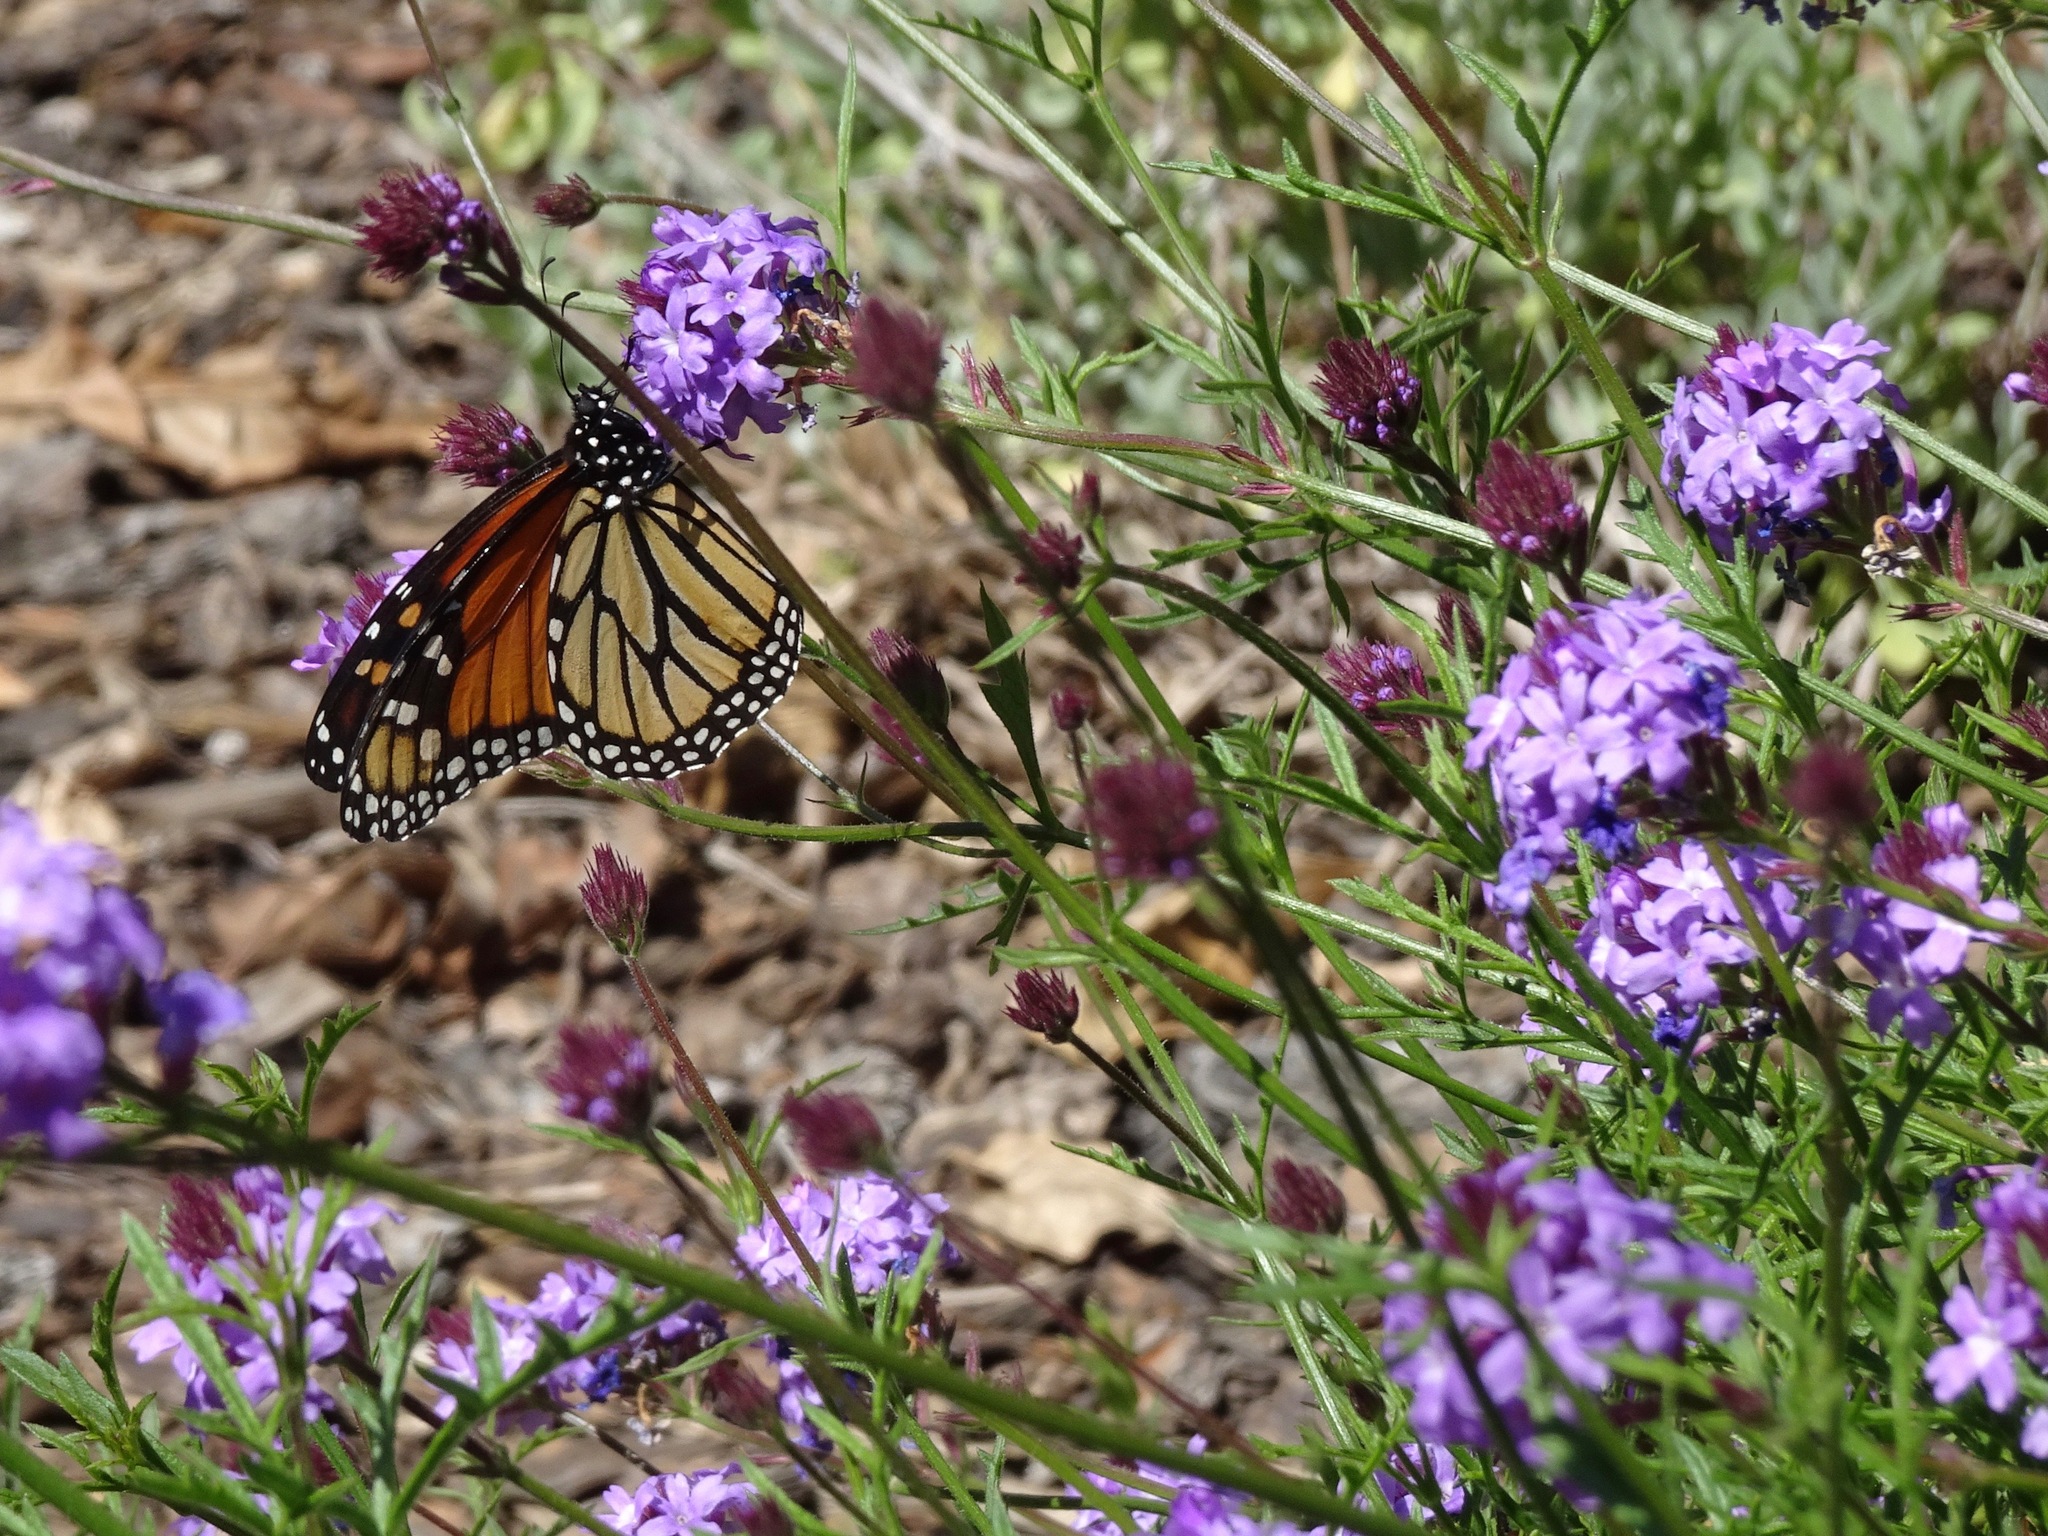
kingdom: Animalia
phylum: Arthropoda
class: Insecta
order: Lepidoptera
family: Nymphalidae
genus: Danaus
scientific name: Danaus plexippus
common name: Monarch
